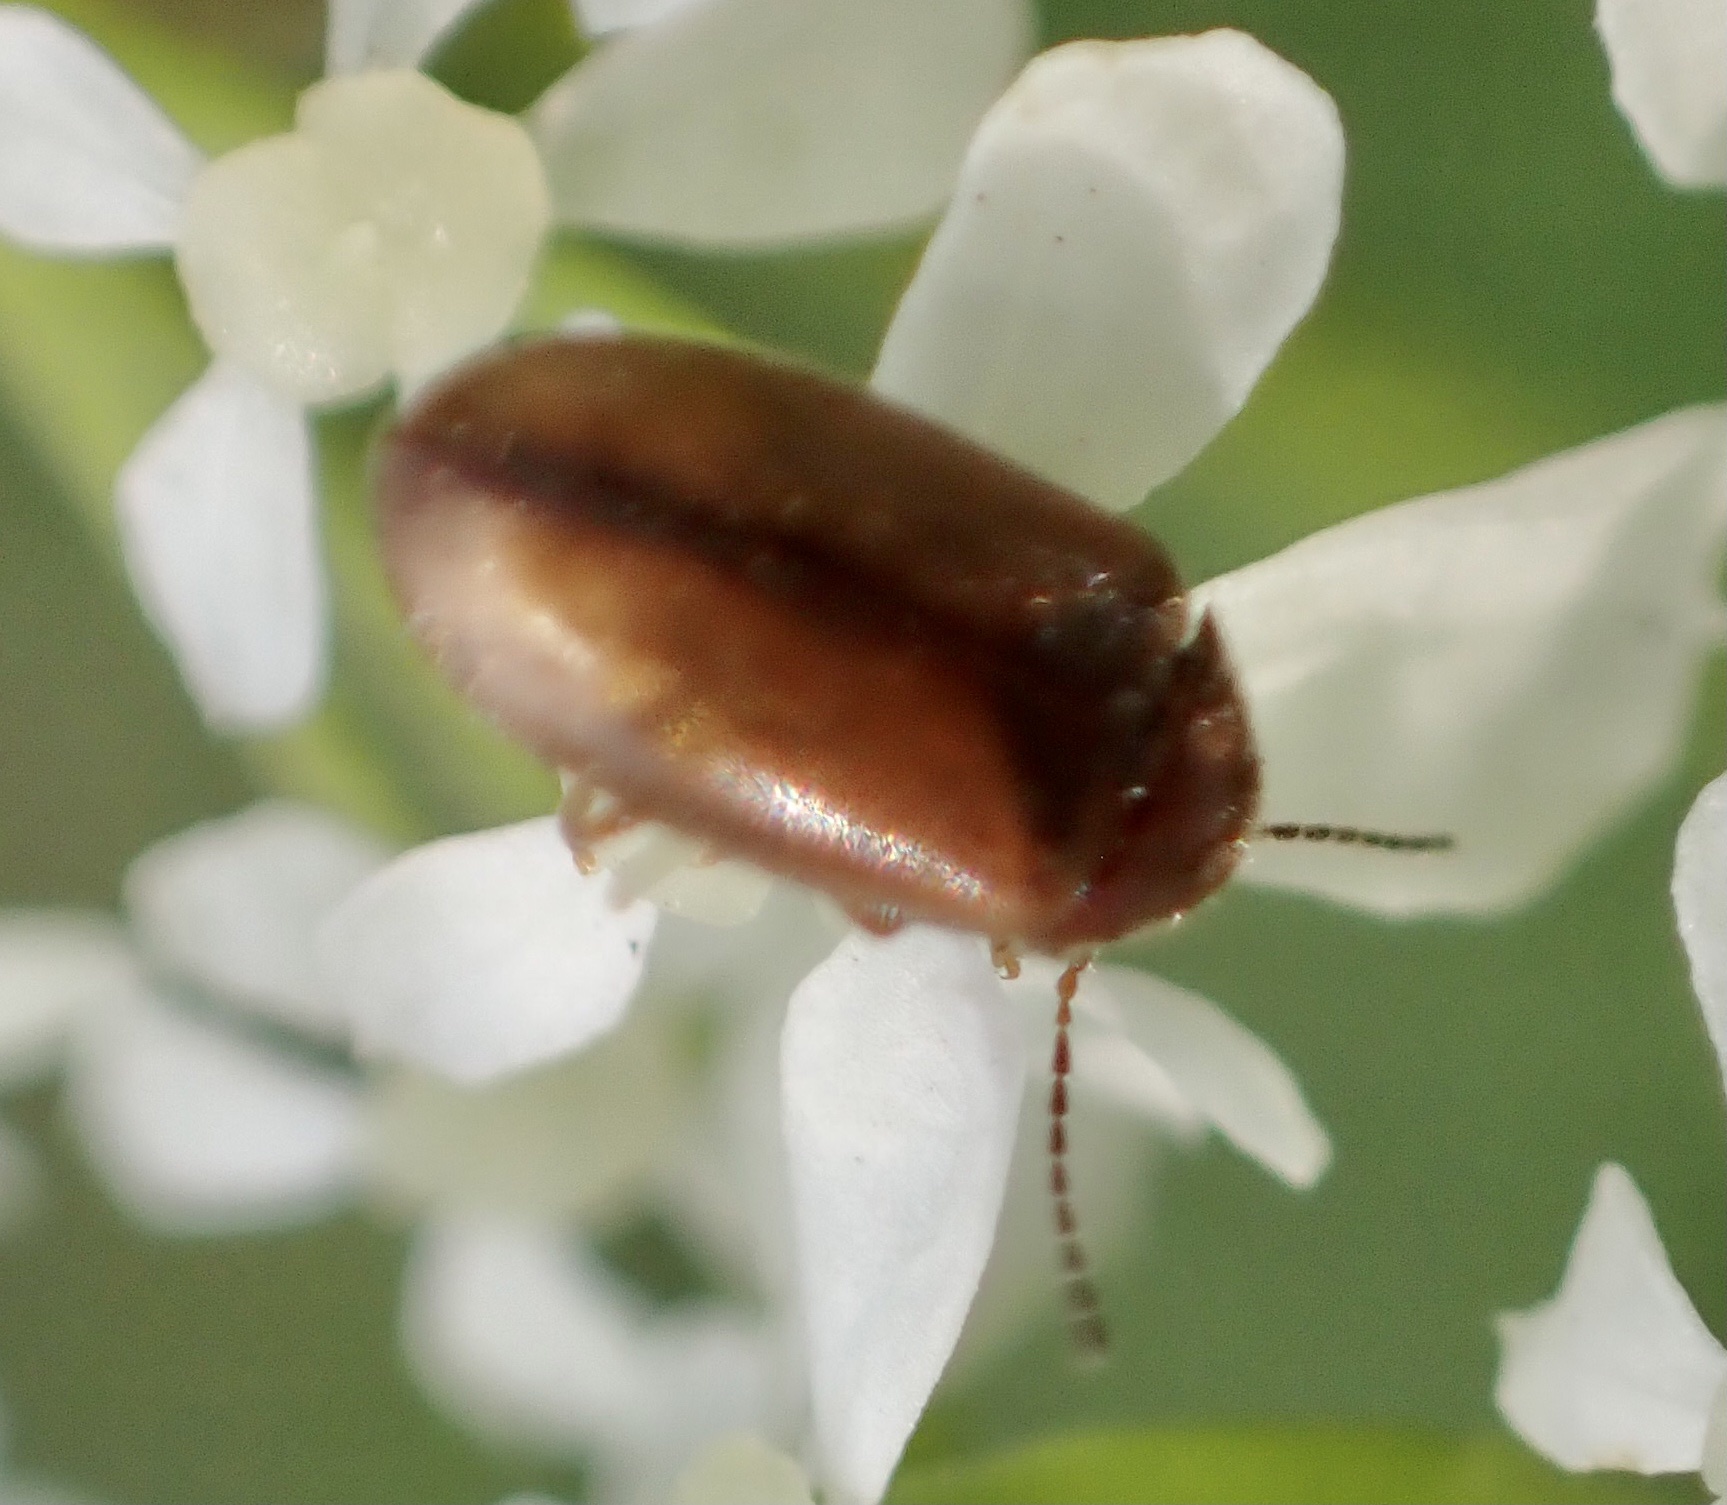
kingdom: Animalia
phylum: Arthropoda
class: Insecta
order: Coleoptera
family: Scirtidae
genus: Contacyphon
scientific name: Contacyphon laevipennis
